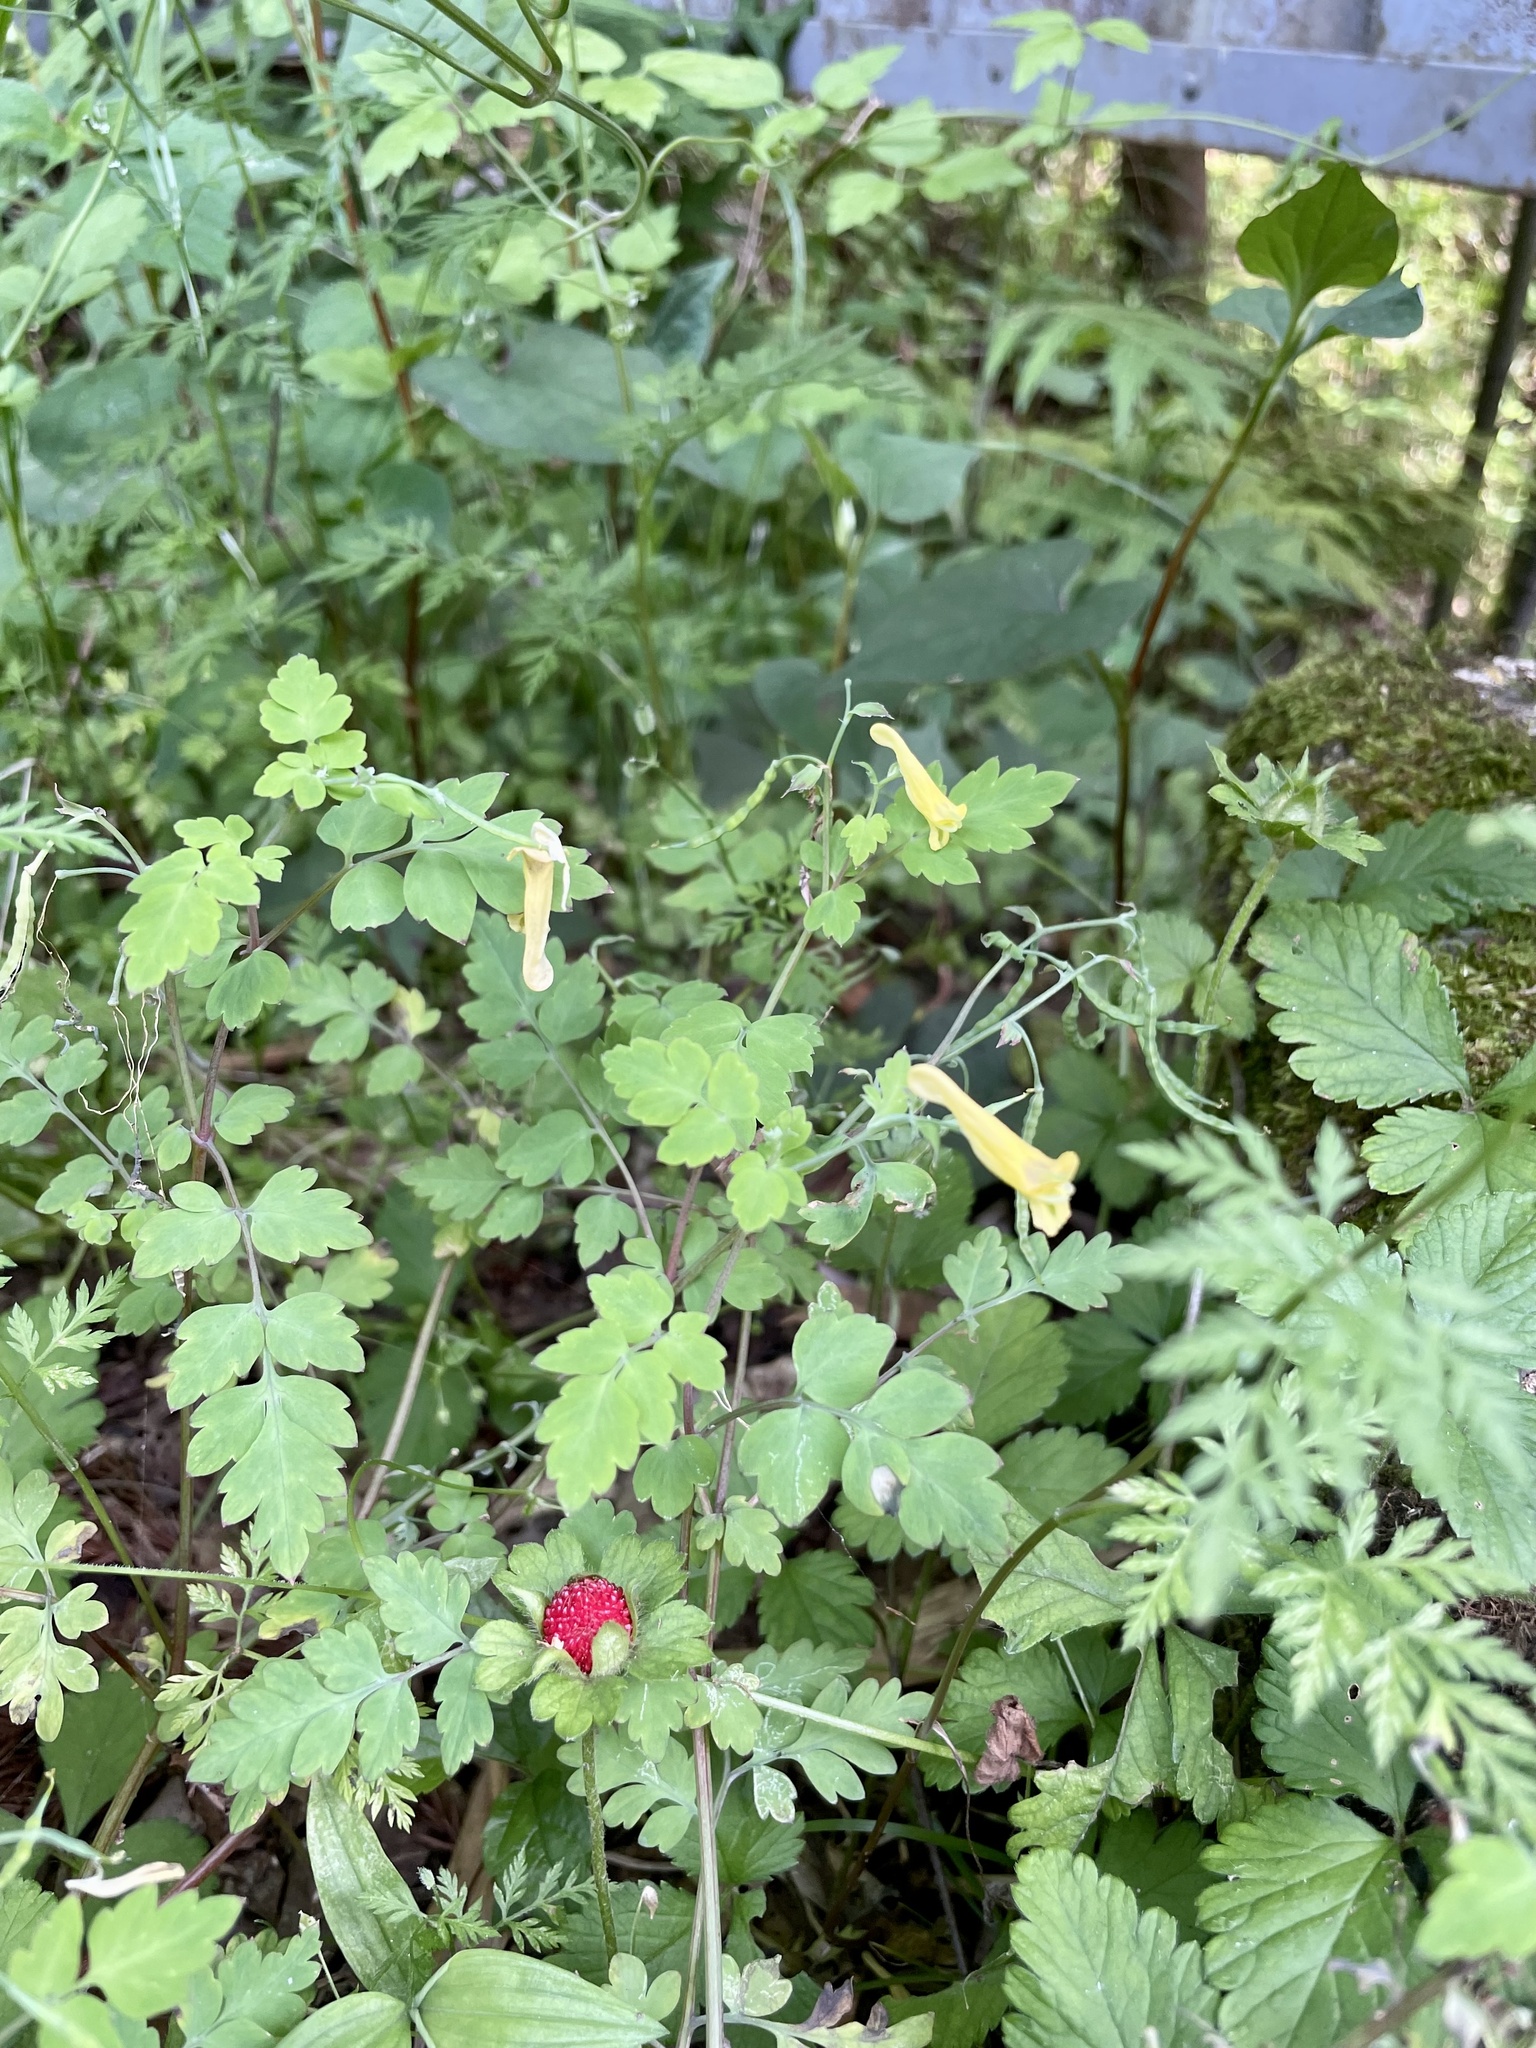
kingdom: Plantae
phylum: Tracheophyta
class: Magnoliopsida
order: Ranunculales
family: Papaveraceae
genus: Corydalis
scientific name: Corydalis pallida
